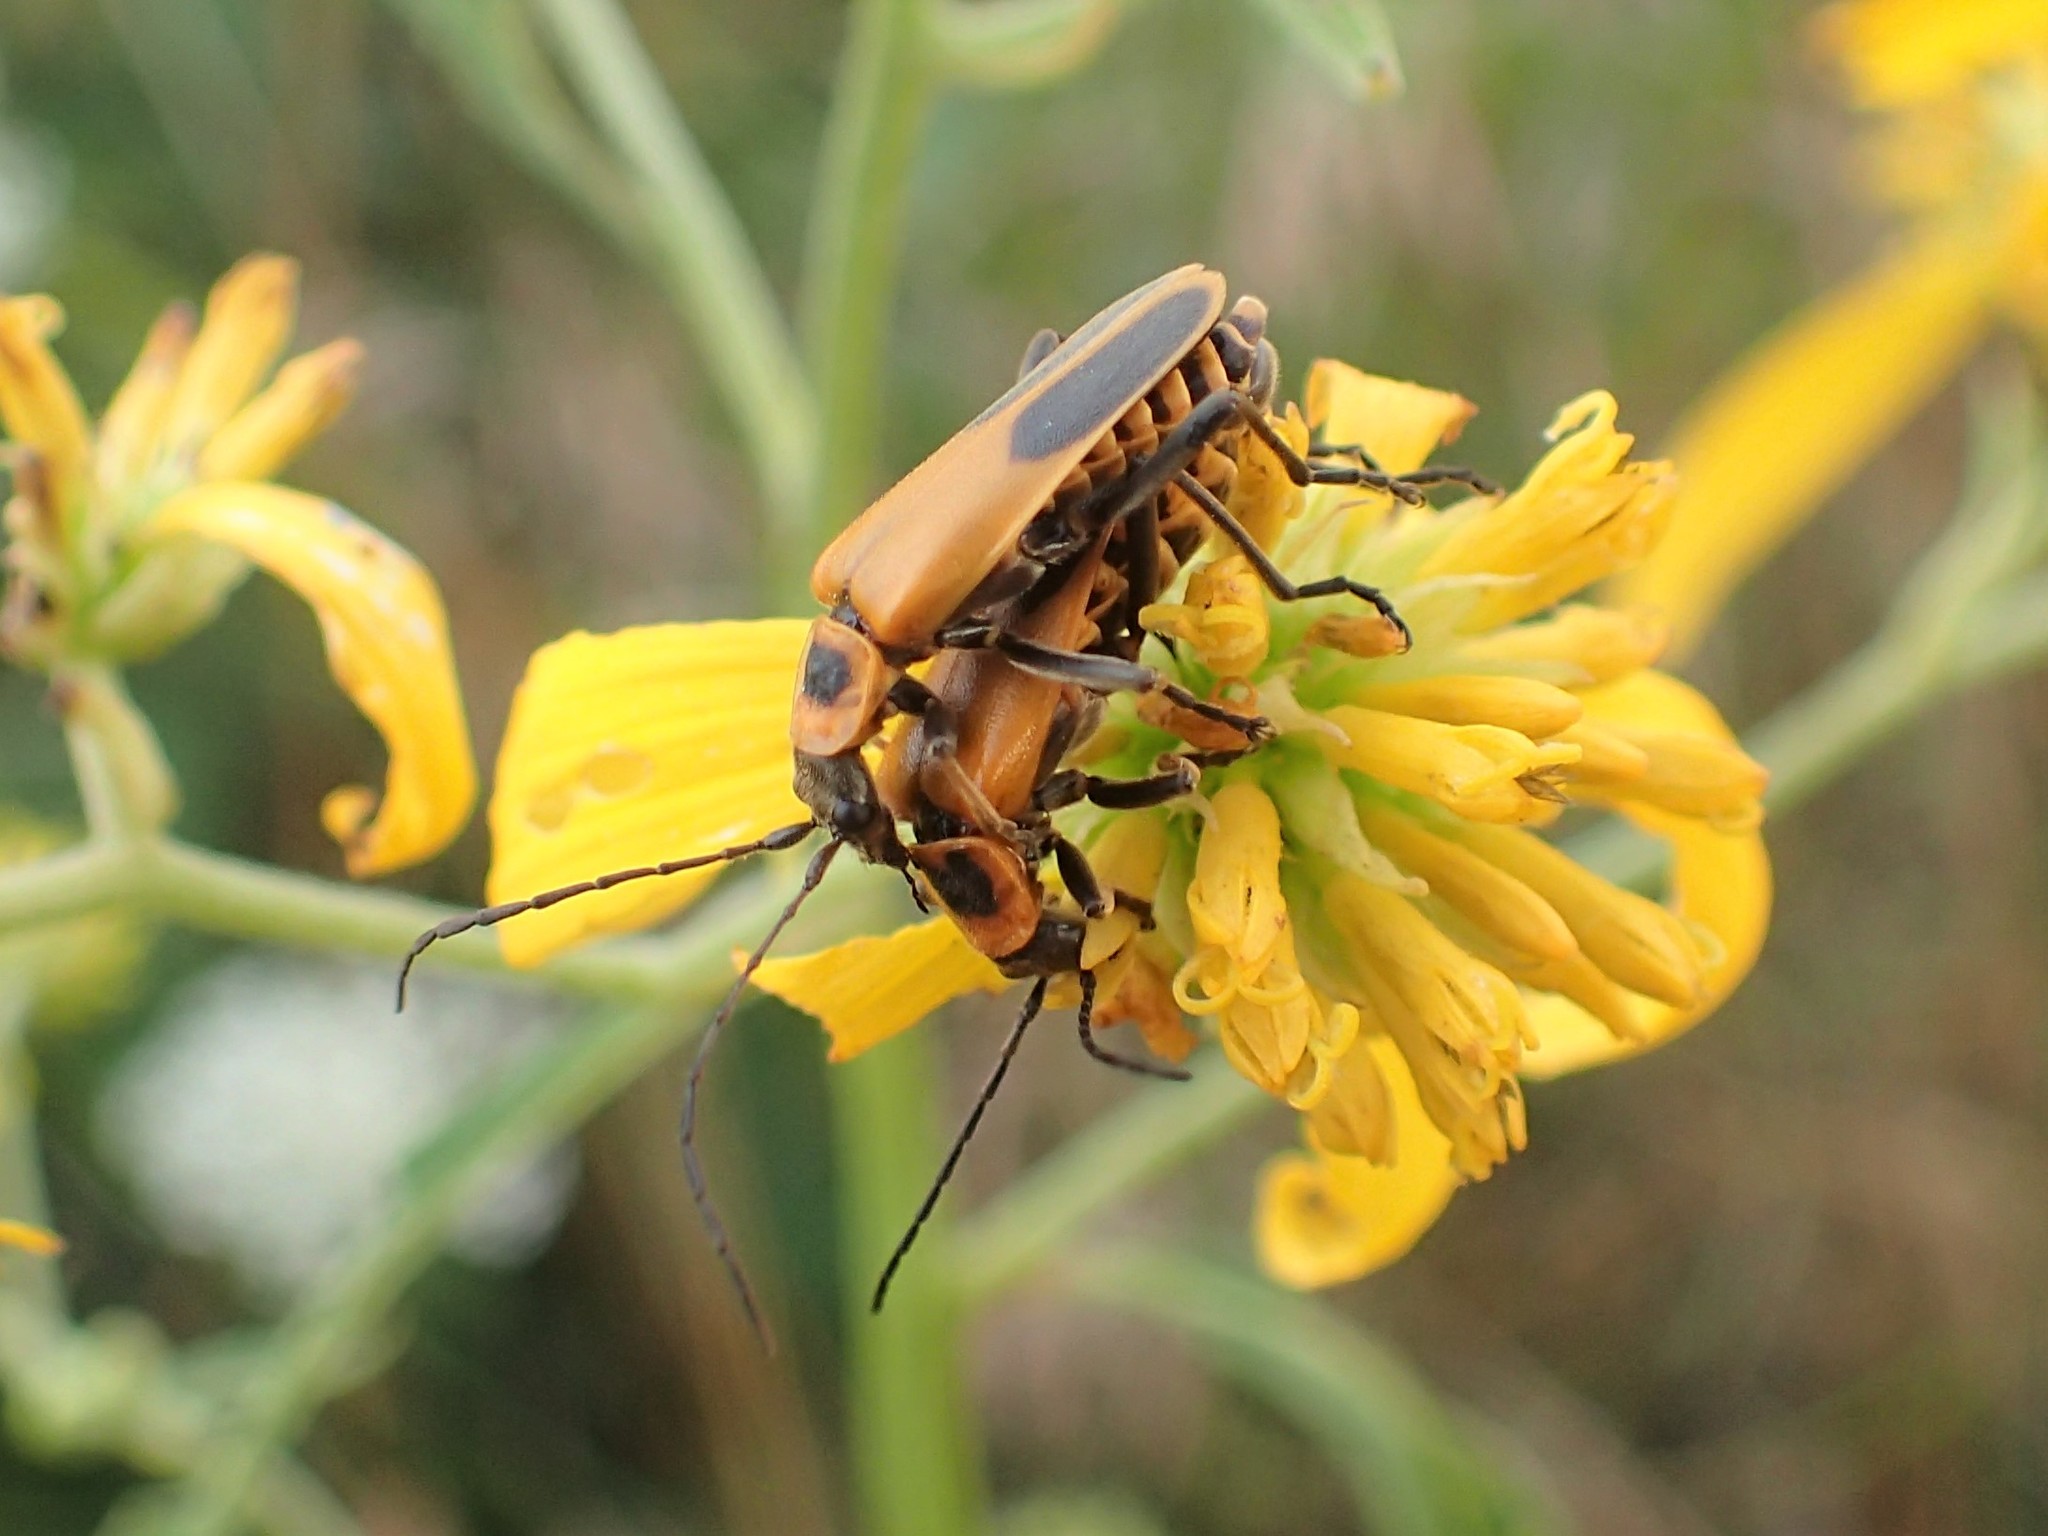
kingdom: Animalia
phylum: Arthropoda
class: Insecta
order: Coleoptera
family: Cantharidae
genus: Chauliognathus
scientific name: Chauliognathus pensylvanicus
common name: Goldenrod soldier beetle
